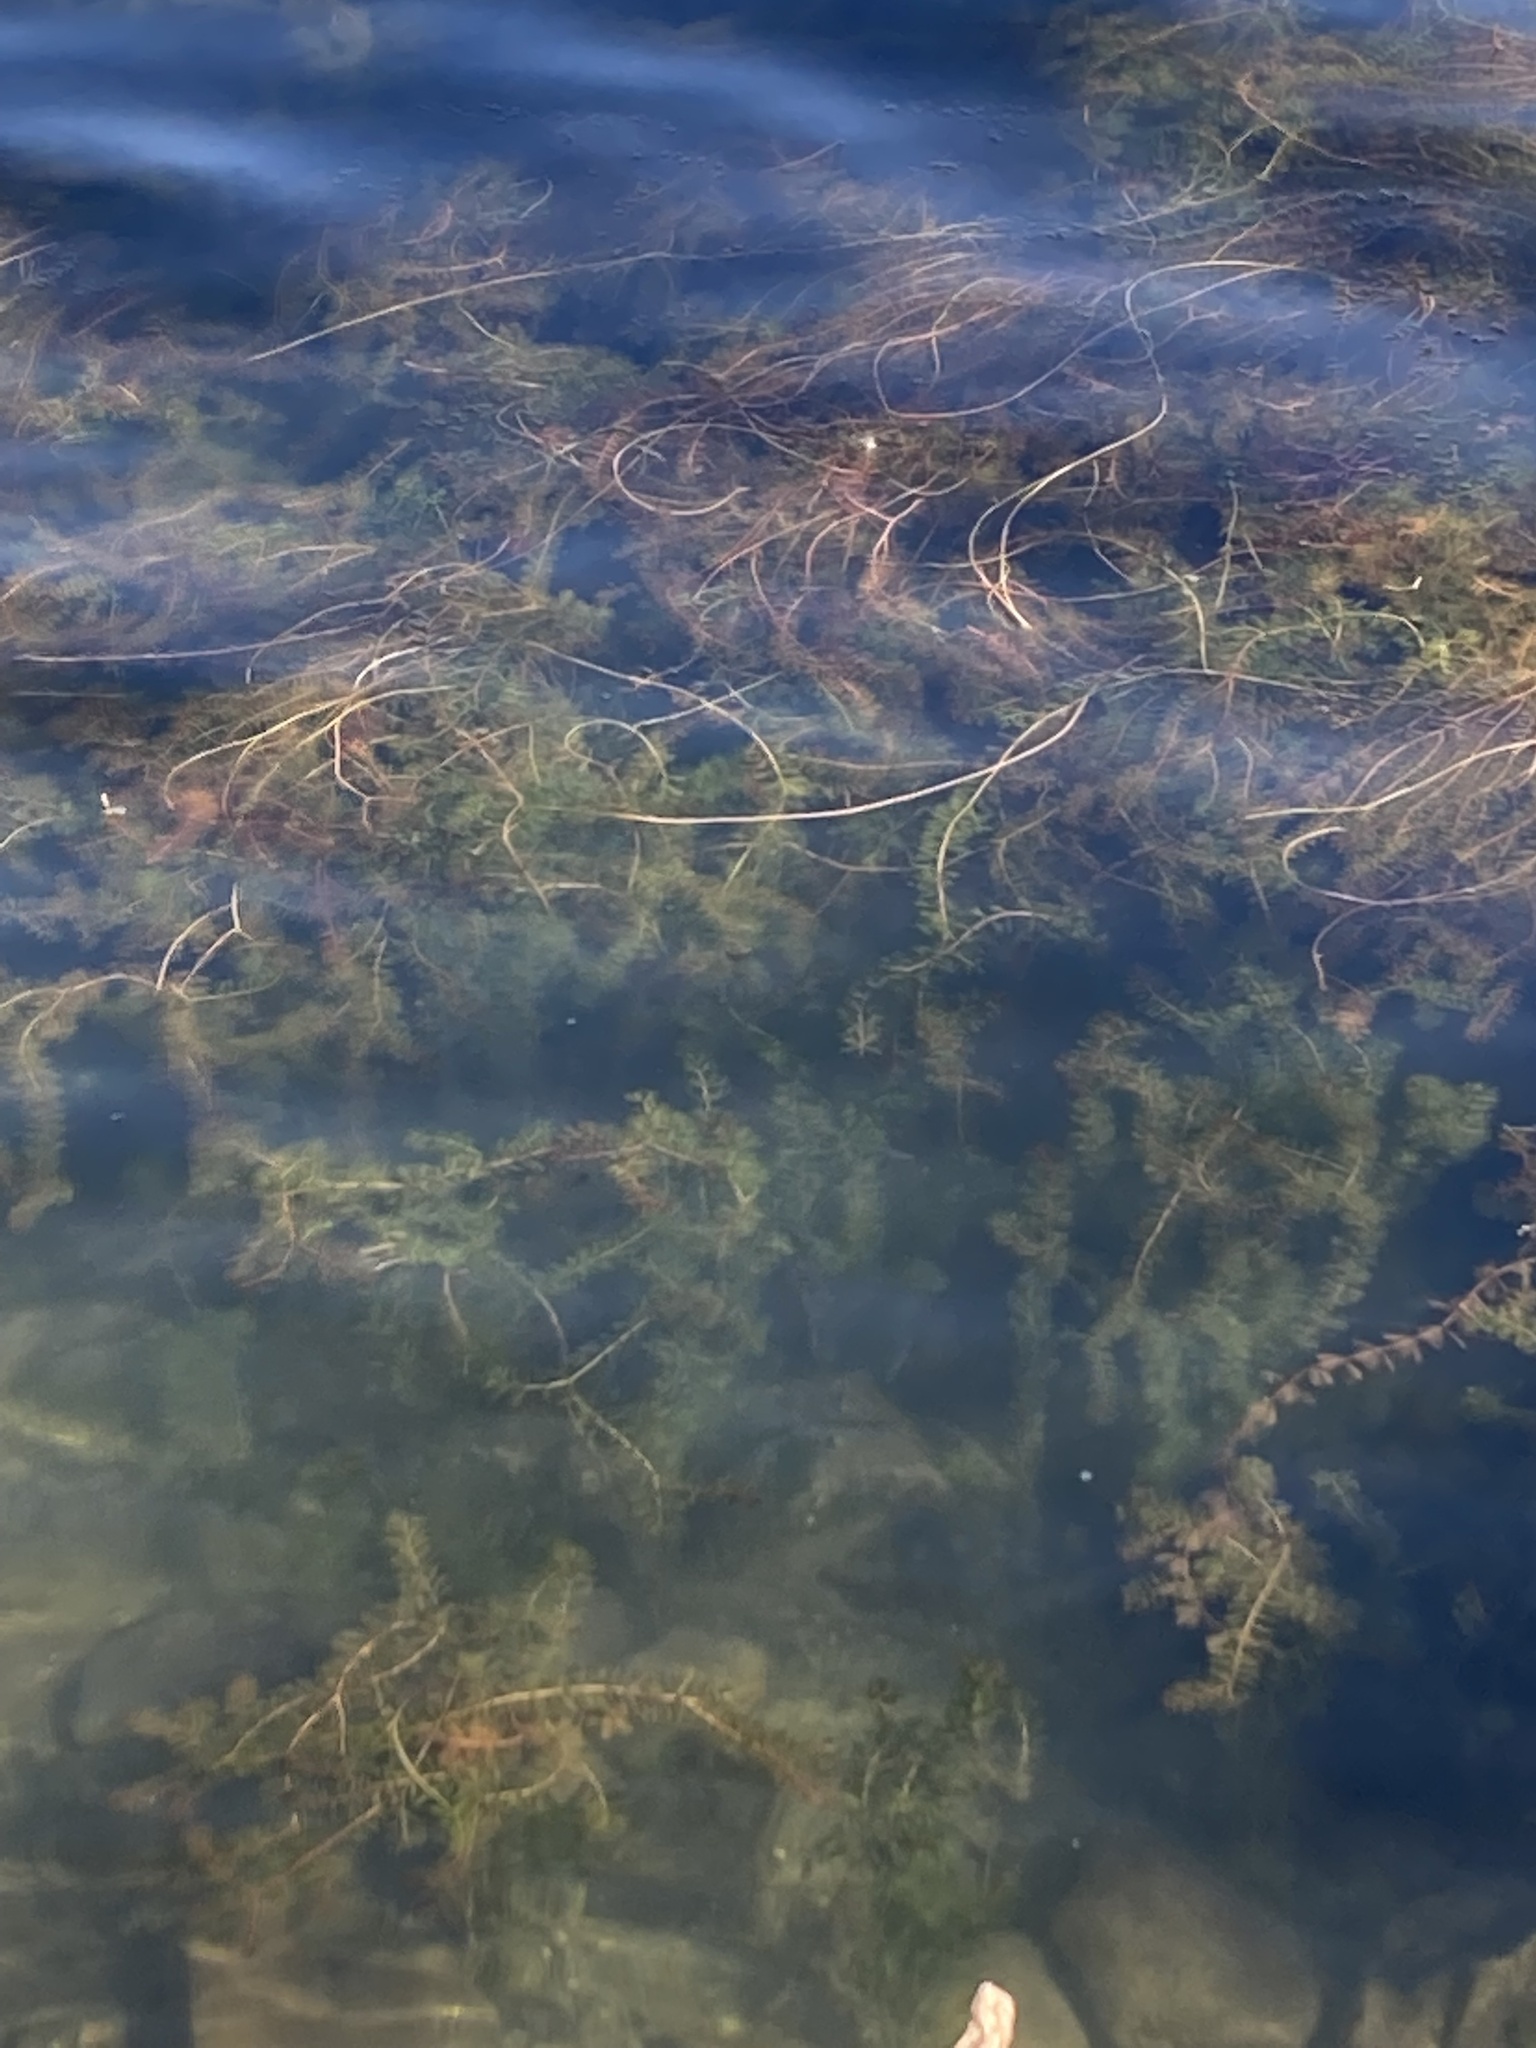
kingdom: Plantae
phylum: Tracheophyta
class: Magnoliopsida
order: Saxifragales
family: Haloragaceae
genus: Myriophyllum
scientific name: Myriophyllum spicatum
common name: Spiked water-milfoil
